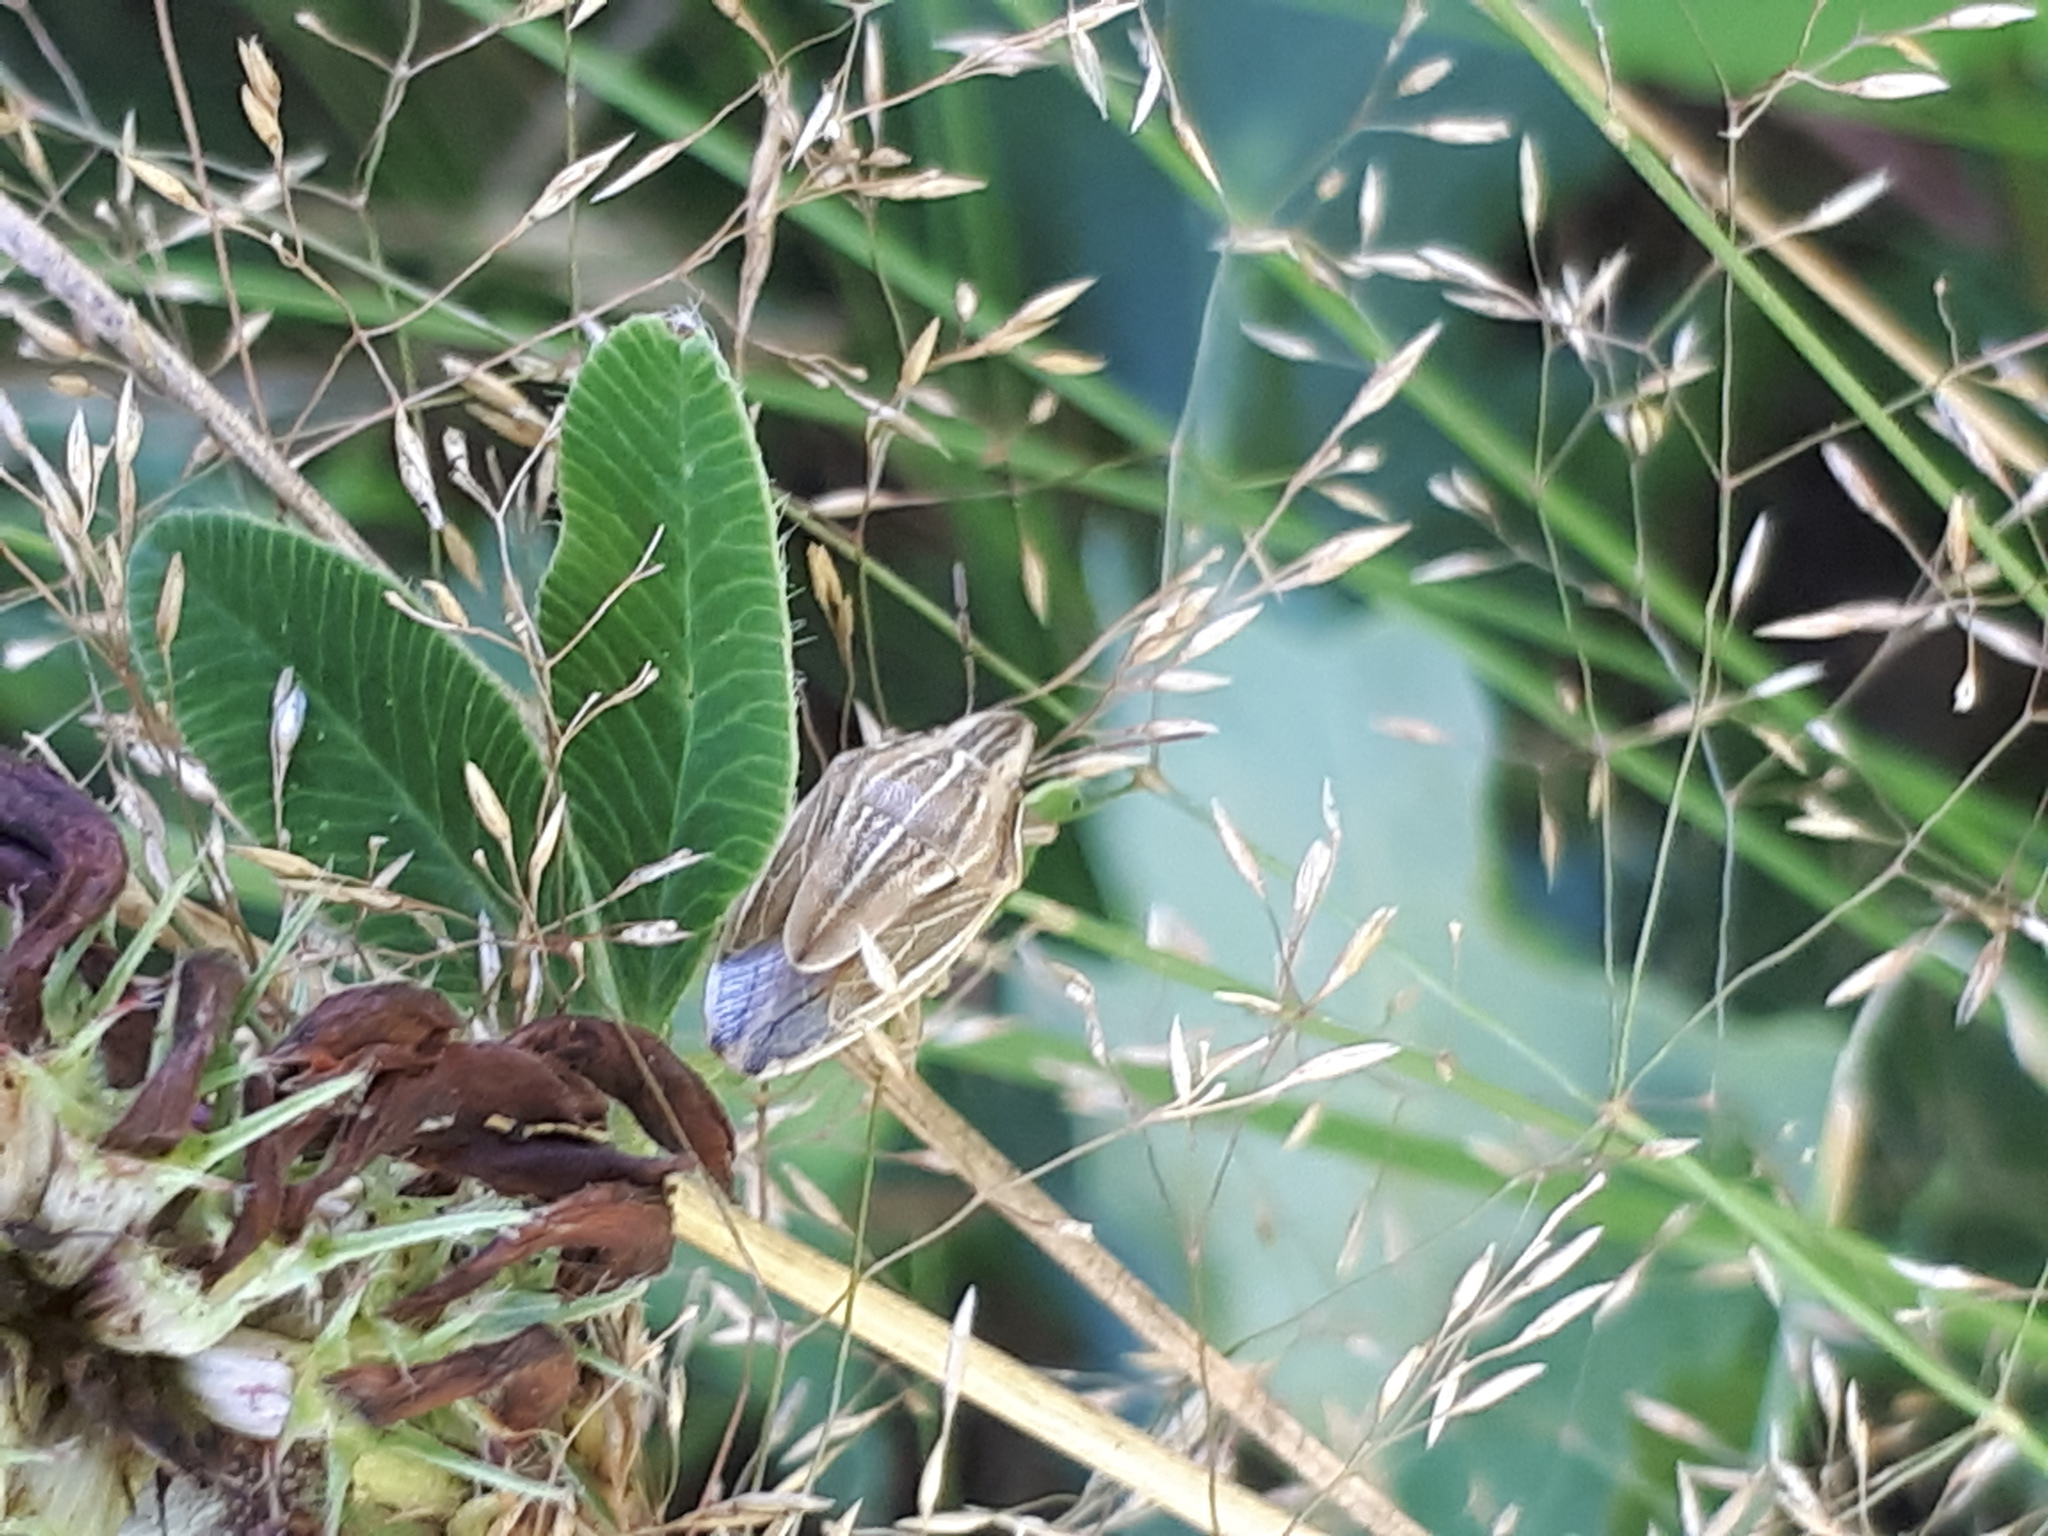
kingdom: Animalia
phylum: Arthropoda
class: Insecta
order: Hemiptera
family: Pentatomidae
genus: Aelia
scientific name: Aelia acuminata
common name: Bishop's mitre
